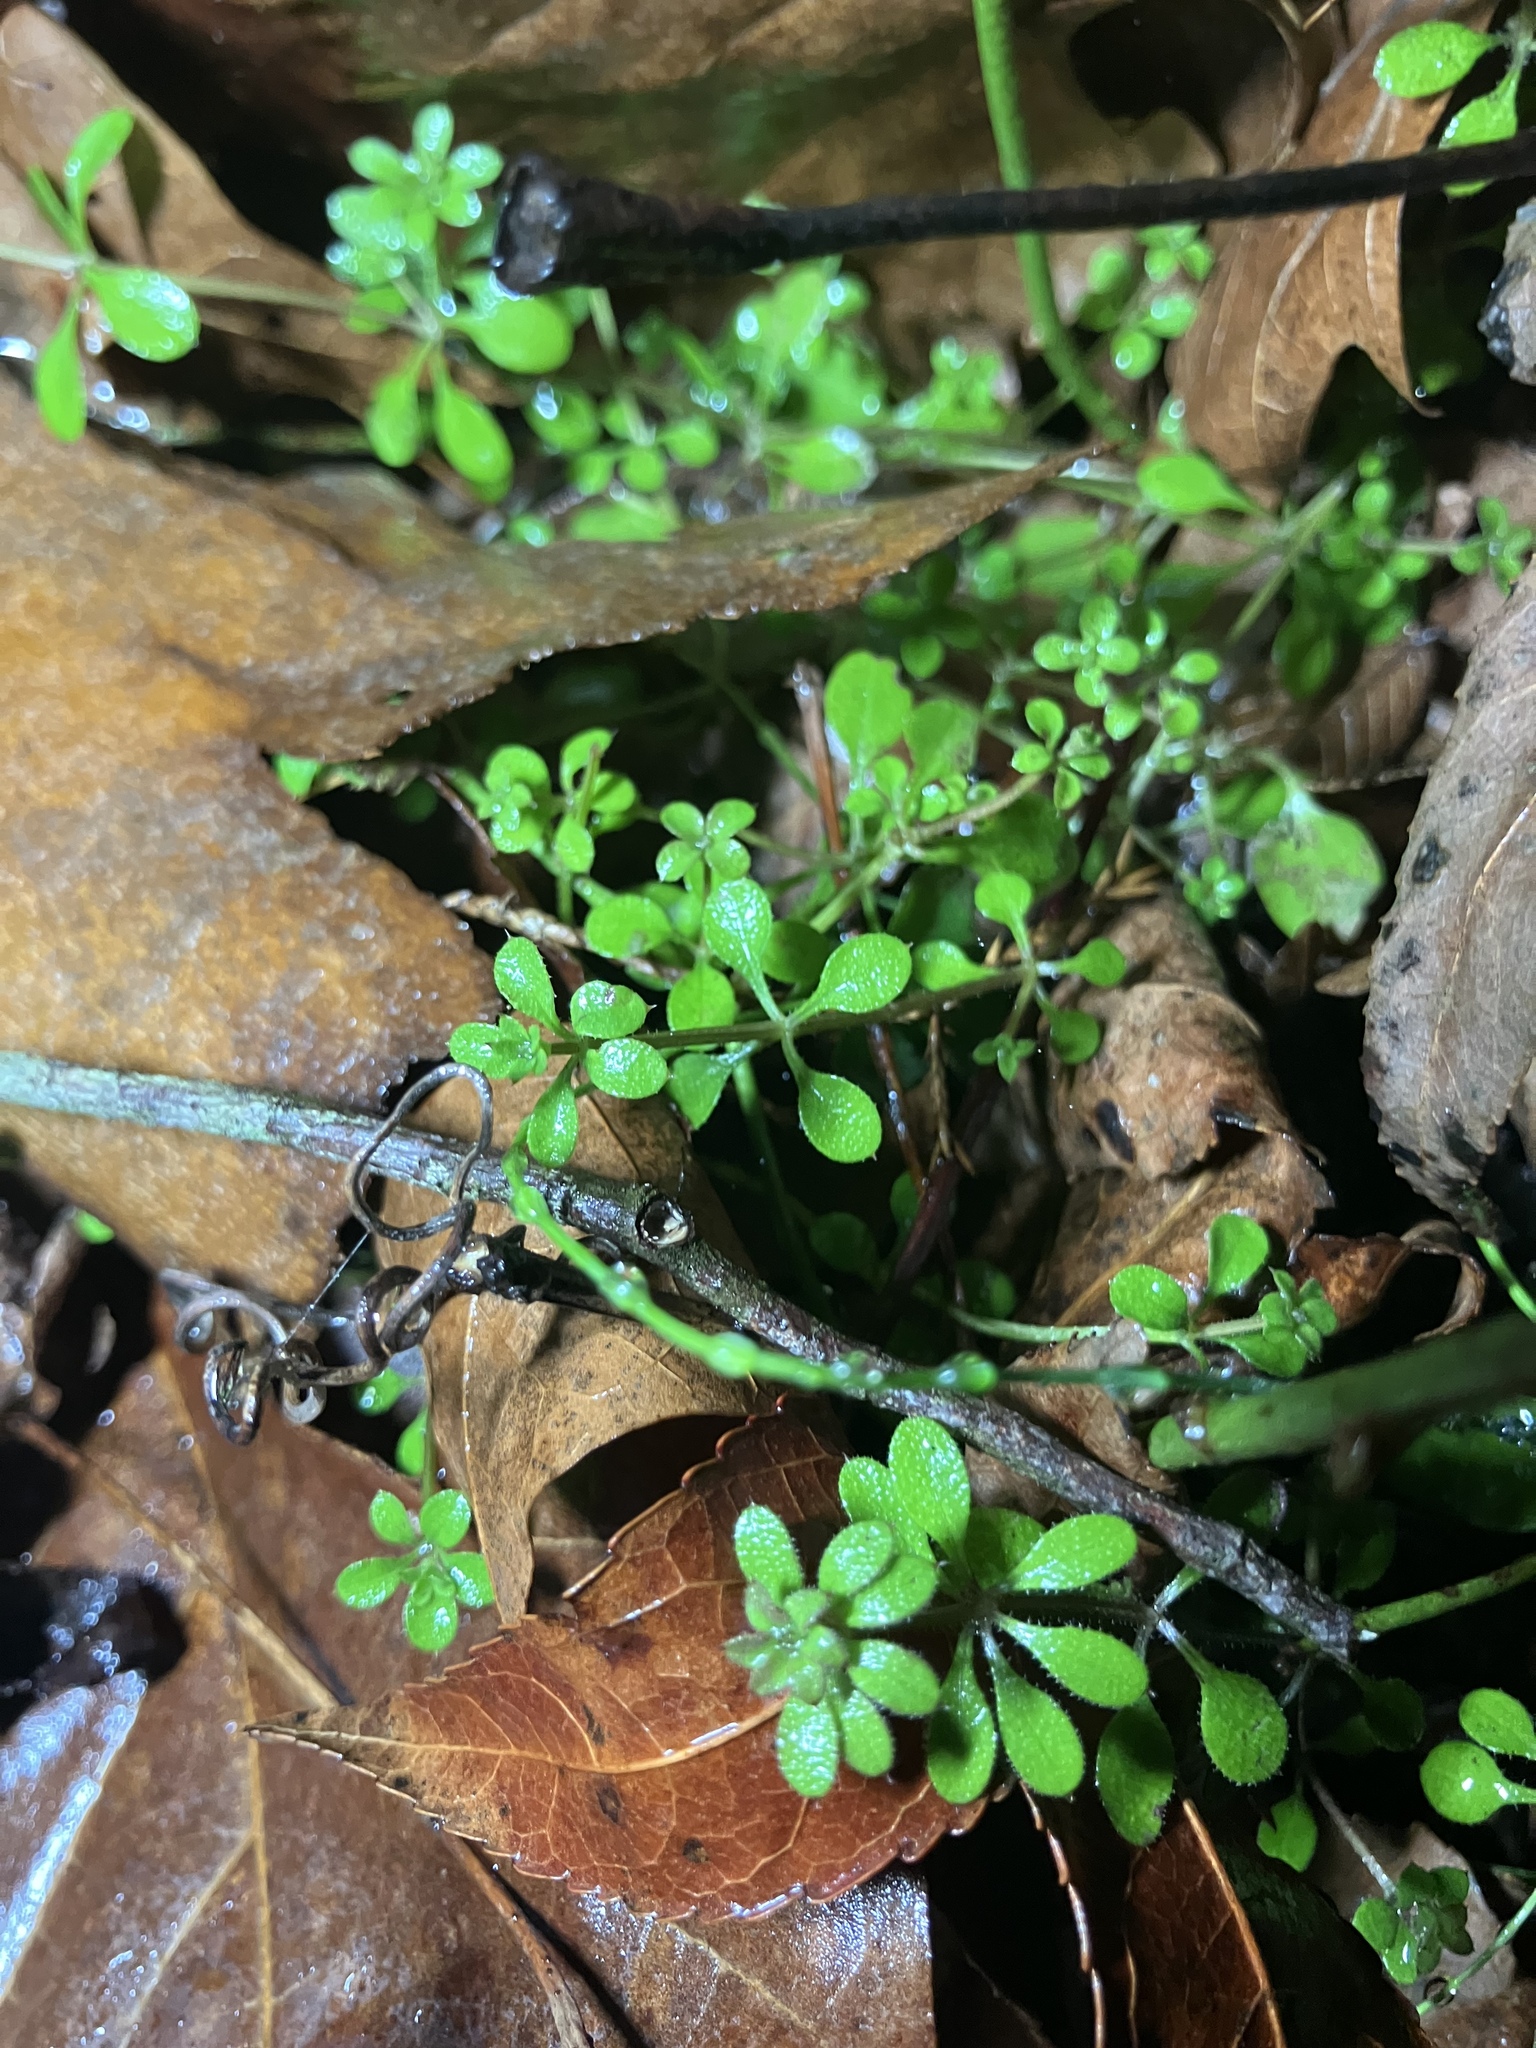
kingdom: Plantae
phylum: Tracheophyta
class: Magnoliopsida
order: Gentianales
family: Rubiaceae
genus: Galium
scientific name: Galium aparine
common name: Cleavers
